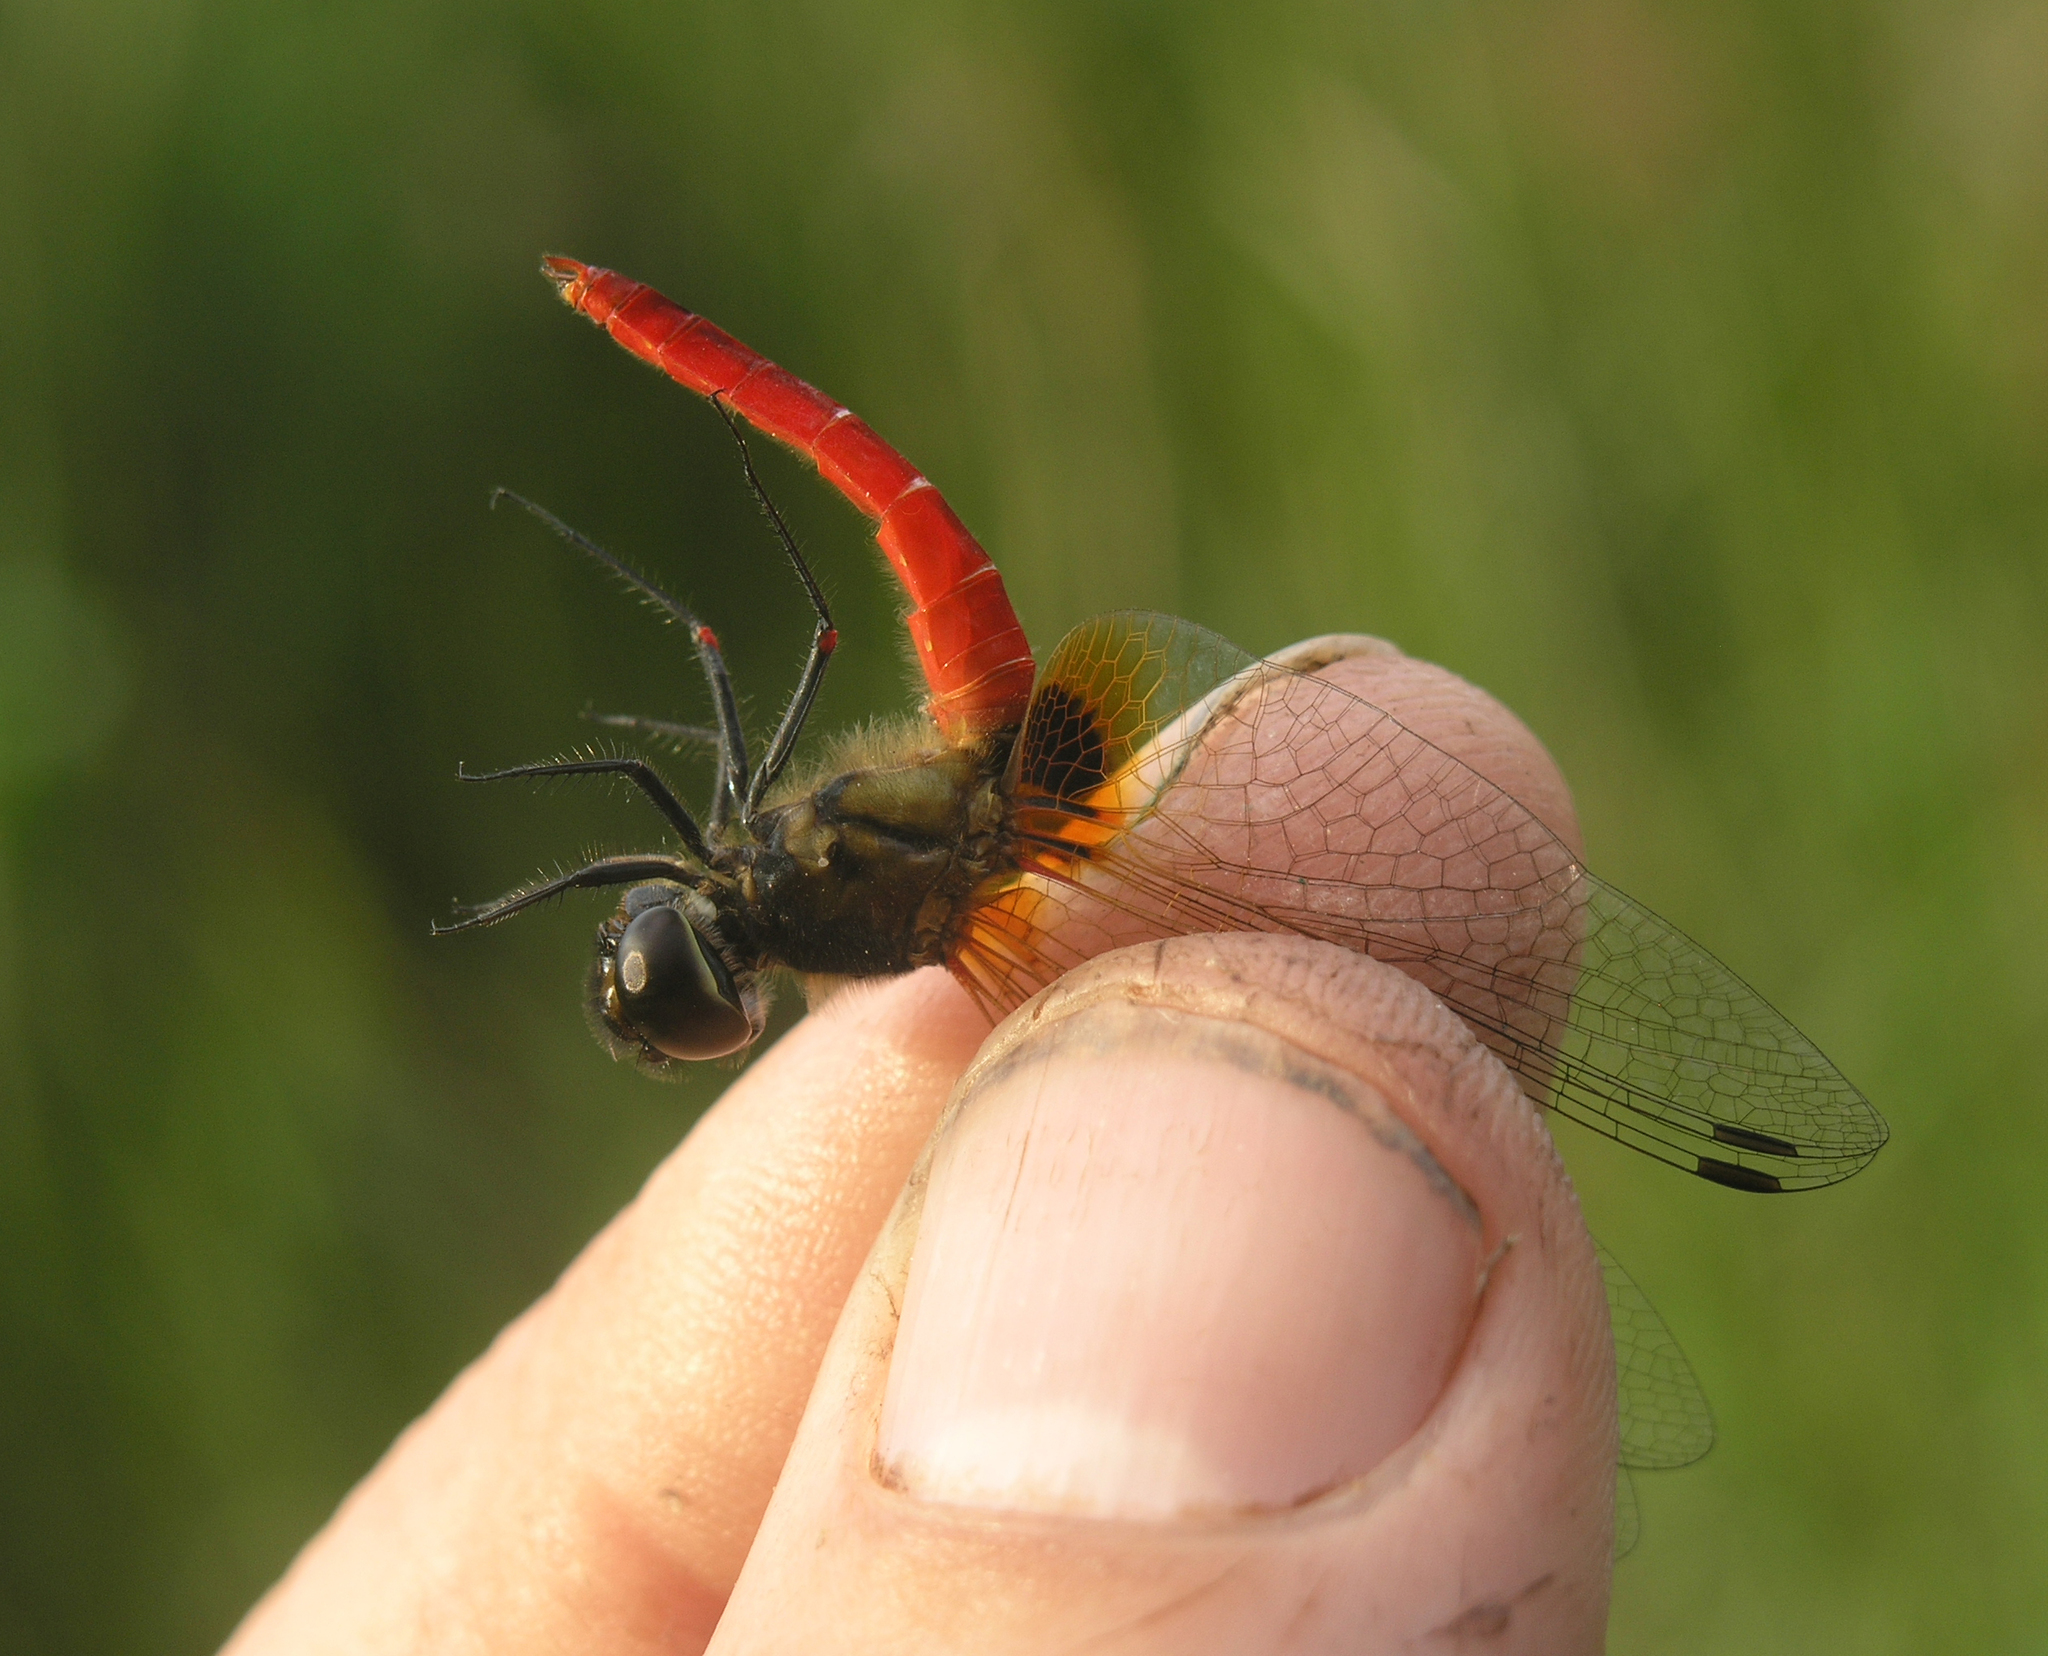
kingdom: Animalia
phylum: Arthropoda
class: Insecta
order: Odonata
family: Libellulidae
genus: Aethriamanta
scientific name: Aethriamanta brevipennis
